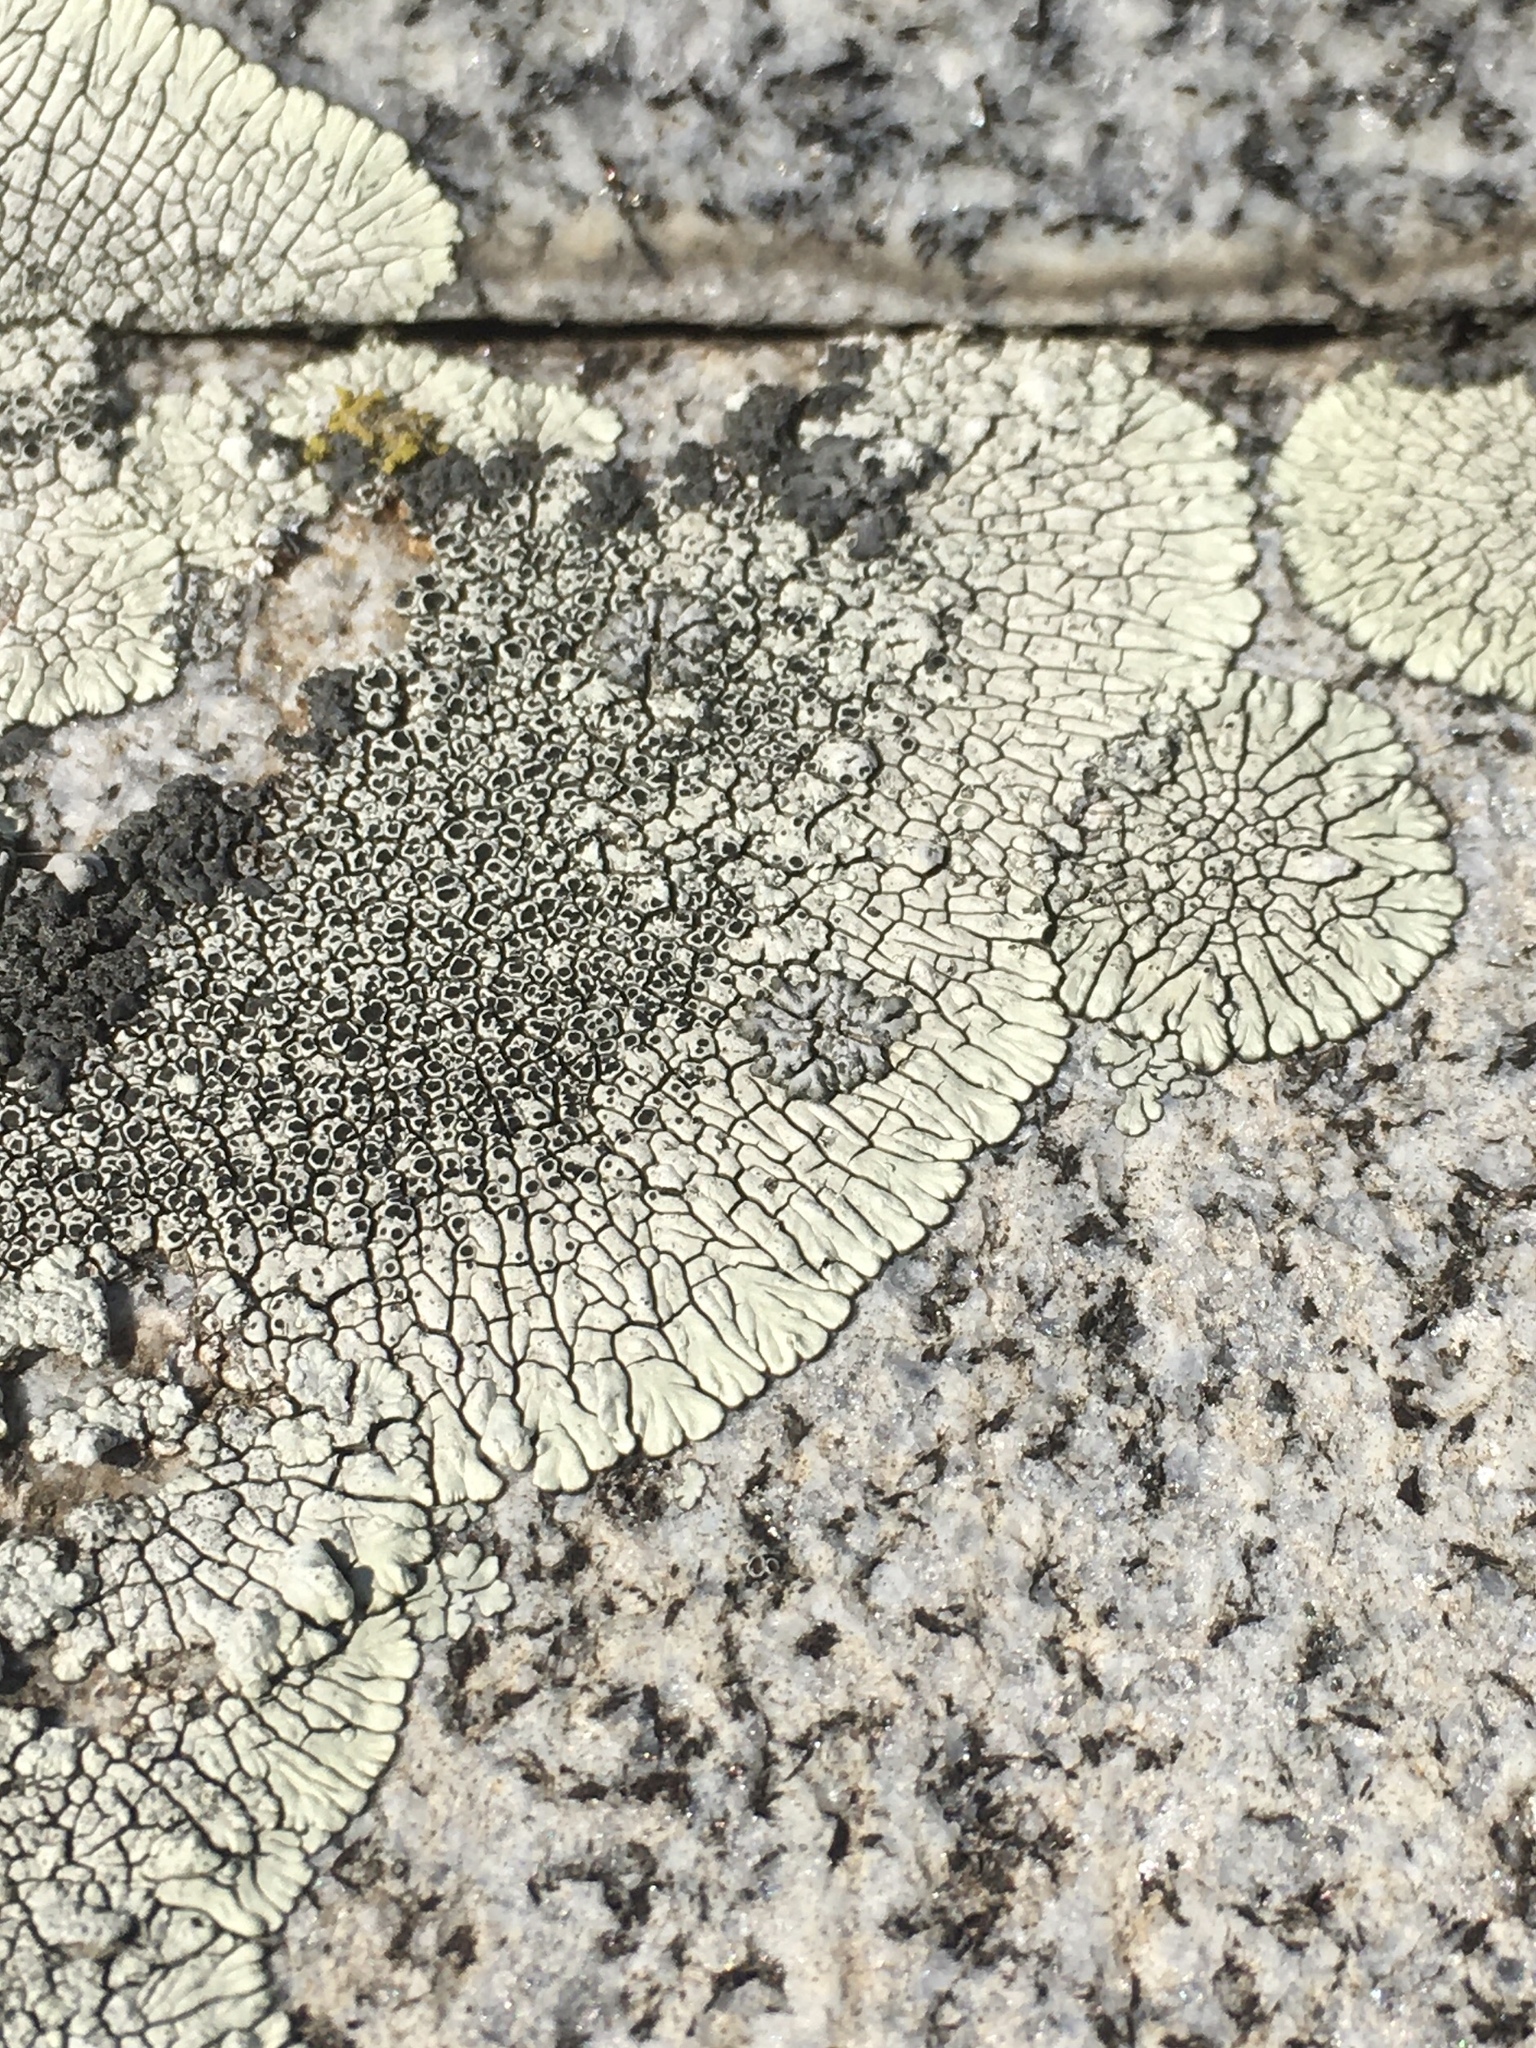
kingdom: Fungi
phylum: Ascomycota
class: Lecanoromycetes
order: Caliciales
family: Caliciaceae
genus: Dimelaena
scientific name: Dimelaena oreina
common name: Golden moonglow lichen
